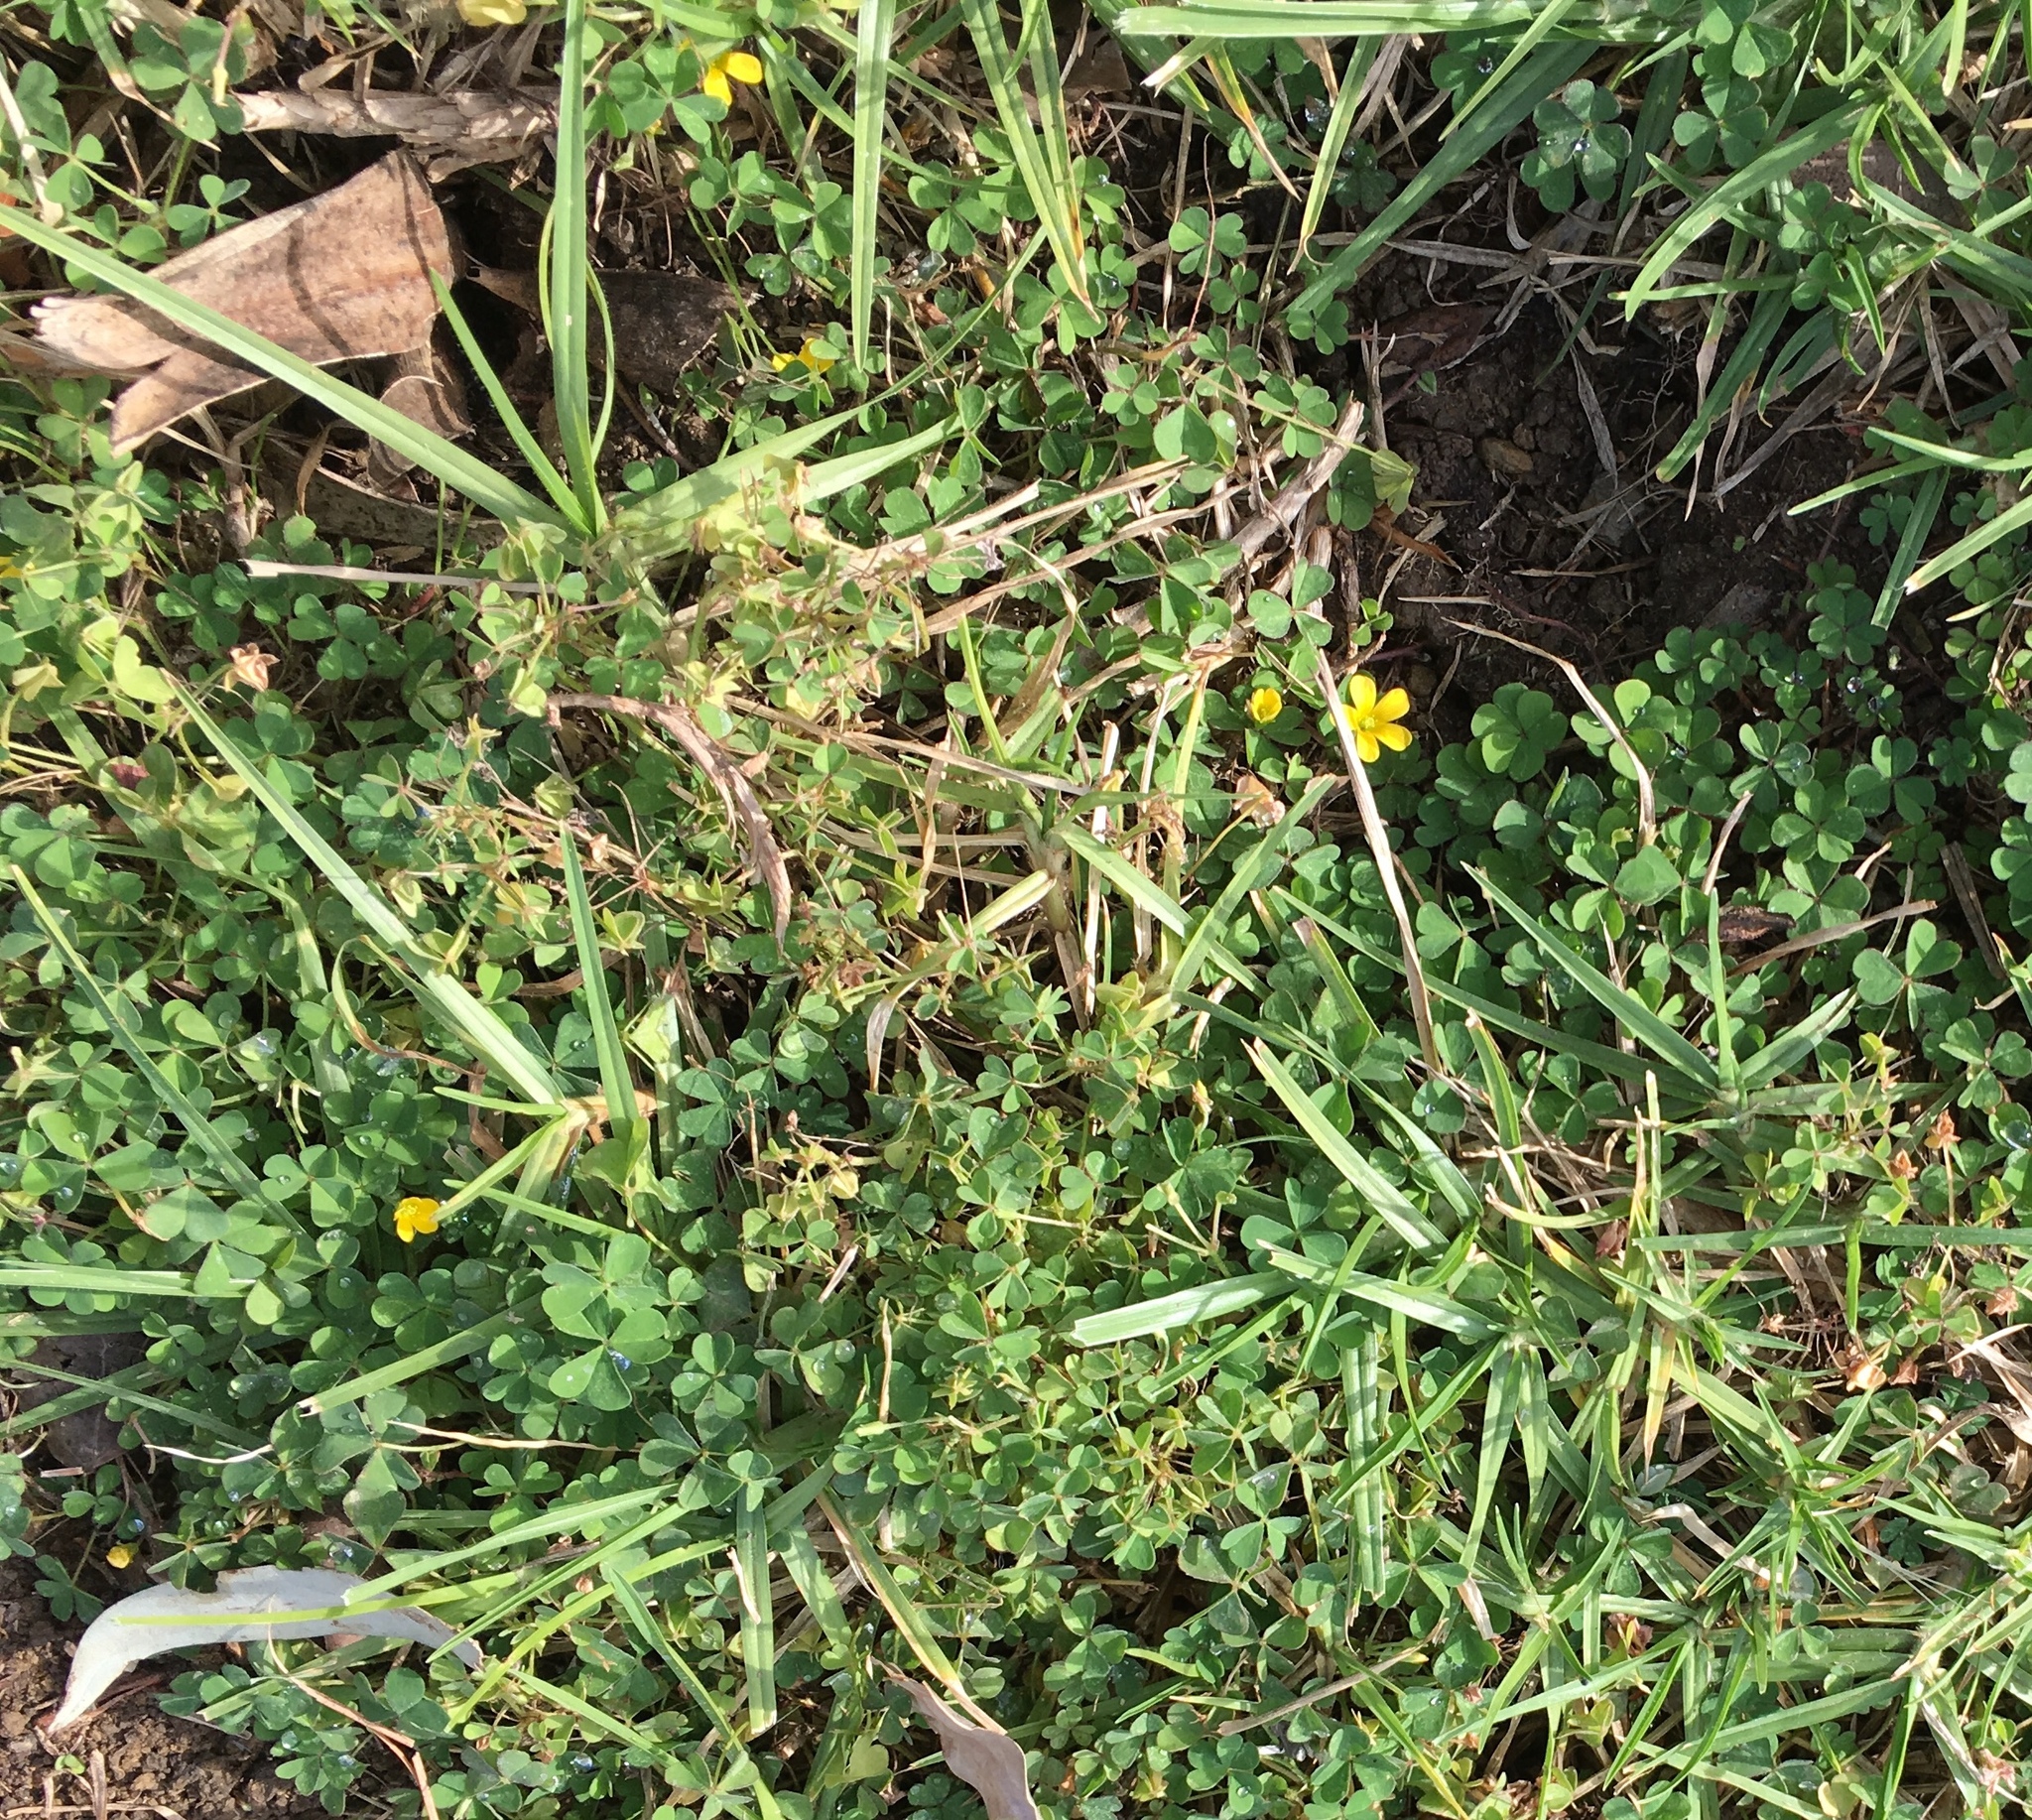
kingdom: Plantae
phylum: Tracheophyta
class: Magnoliopsida
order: Oxalidales
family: Oxalidaceae
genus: Oxalis
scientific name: Oxalis corniculata
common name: Procumbent yellow-sorrel
